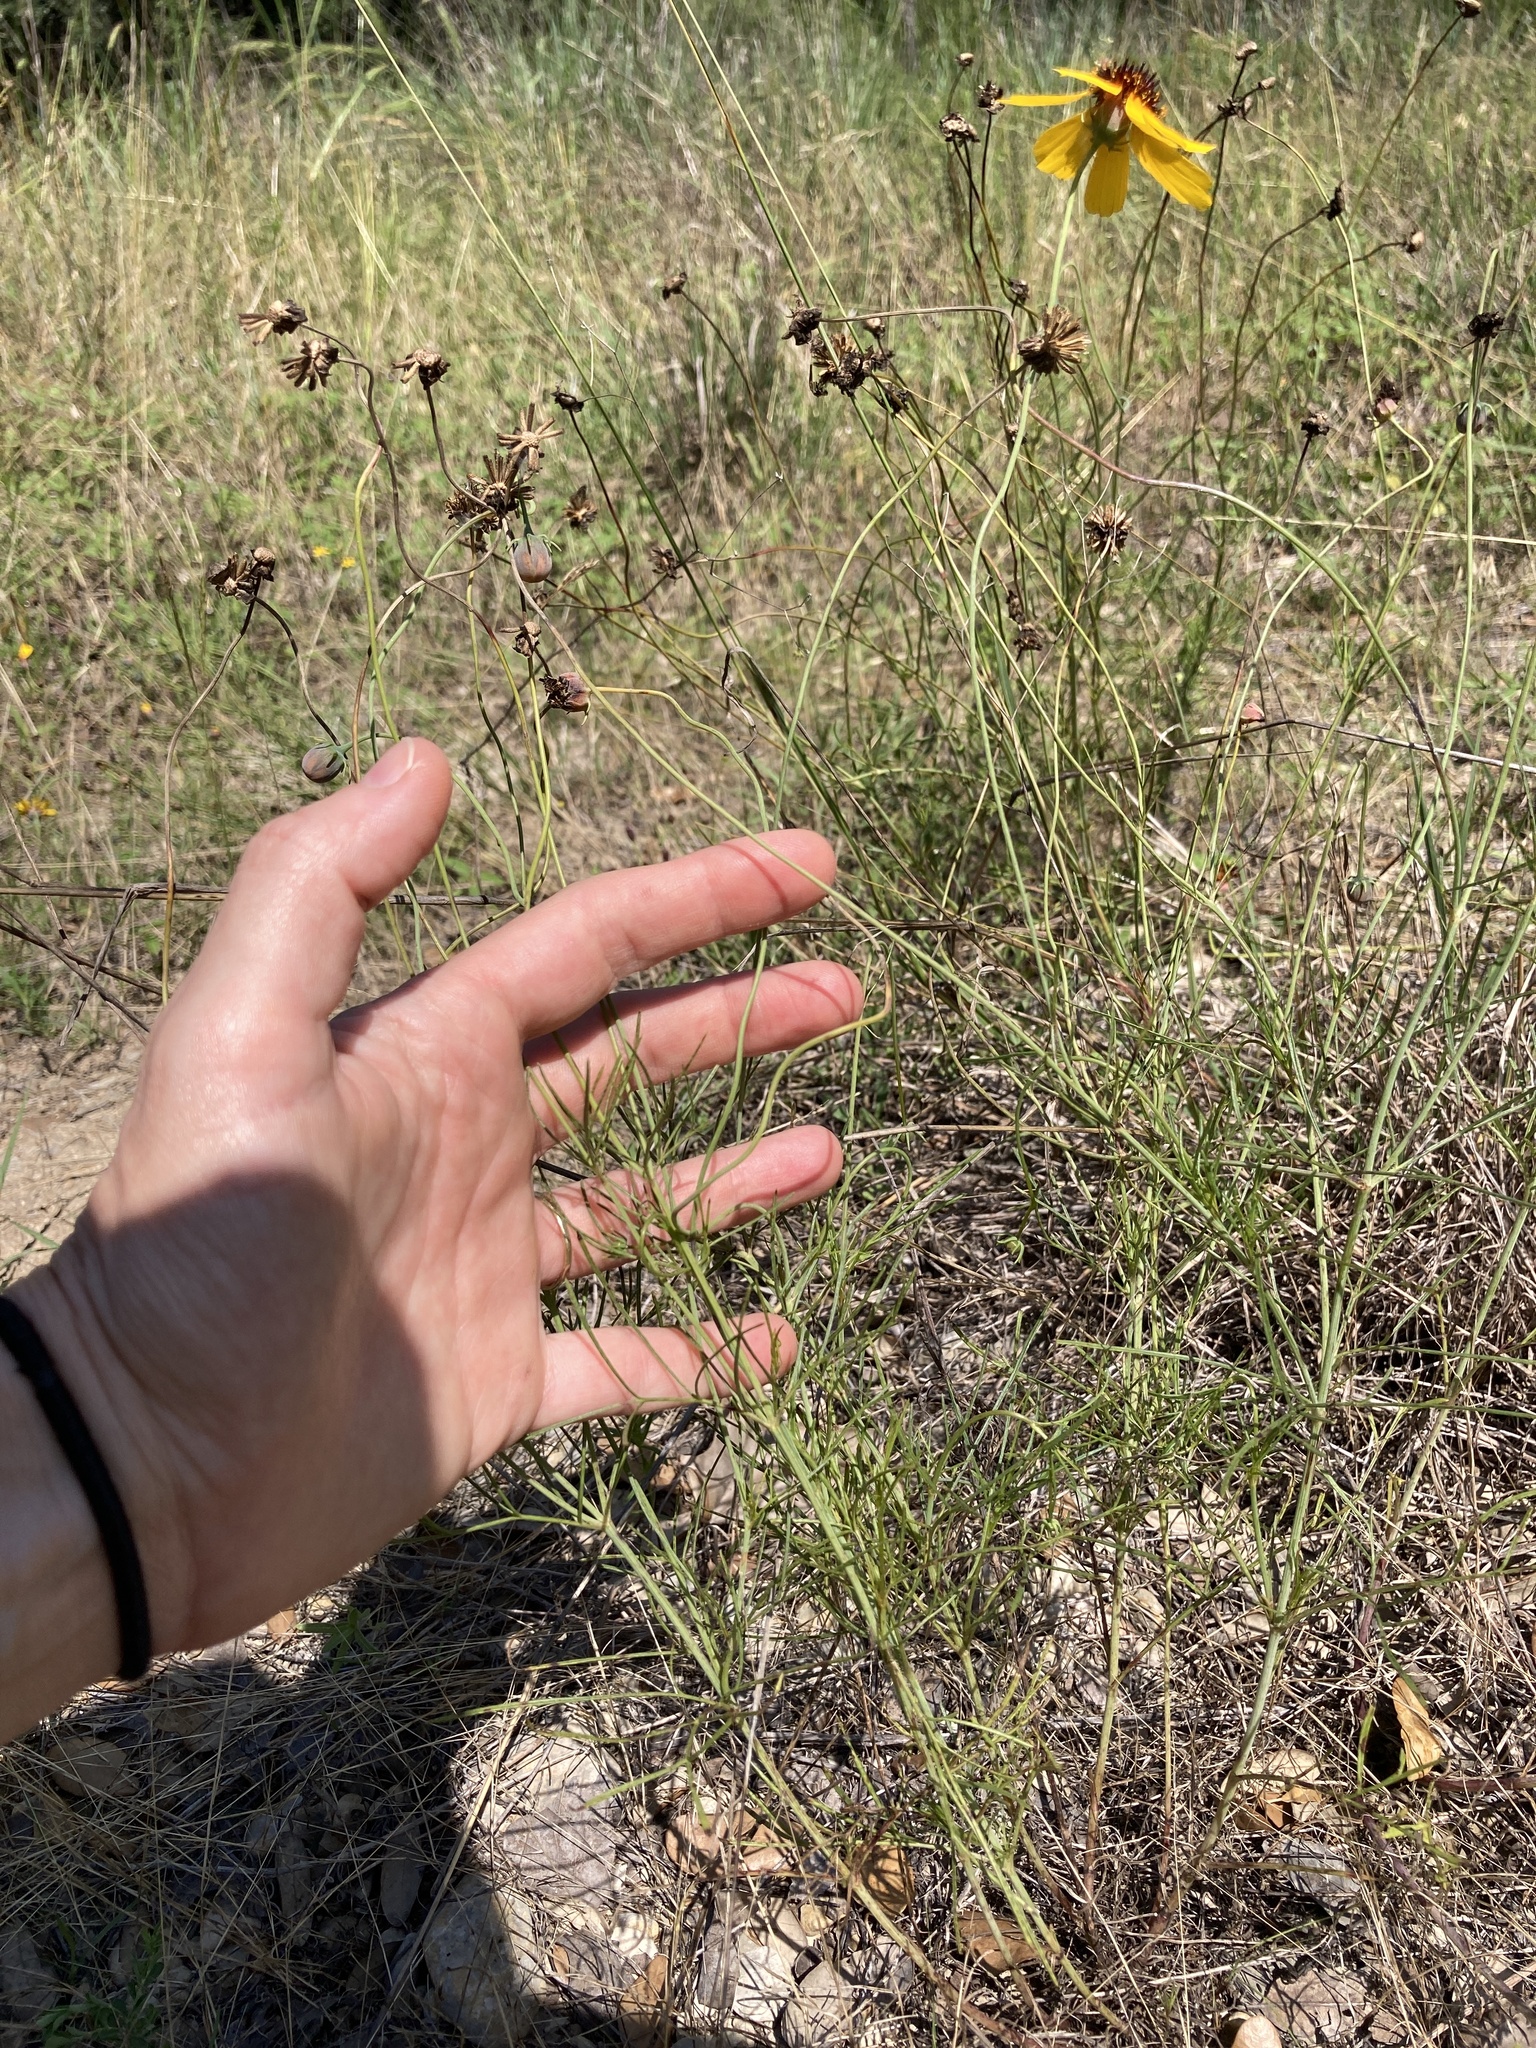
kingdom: Plantae
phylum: Tracheophyta
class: Magnoliopsida
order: Asterales
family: Asteraceae
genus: Thelesperma
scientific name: Thelesperma filifolium
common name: Stiff greenthread
